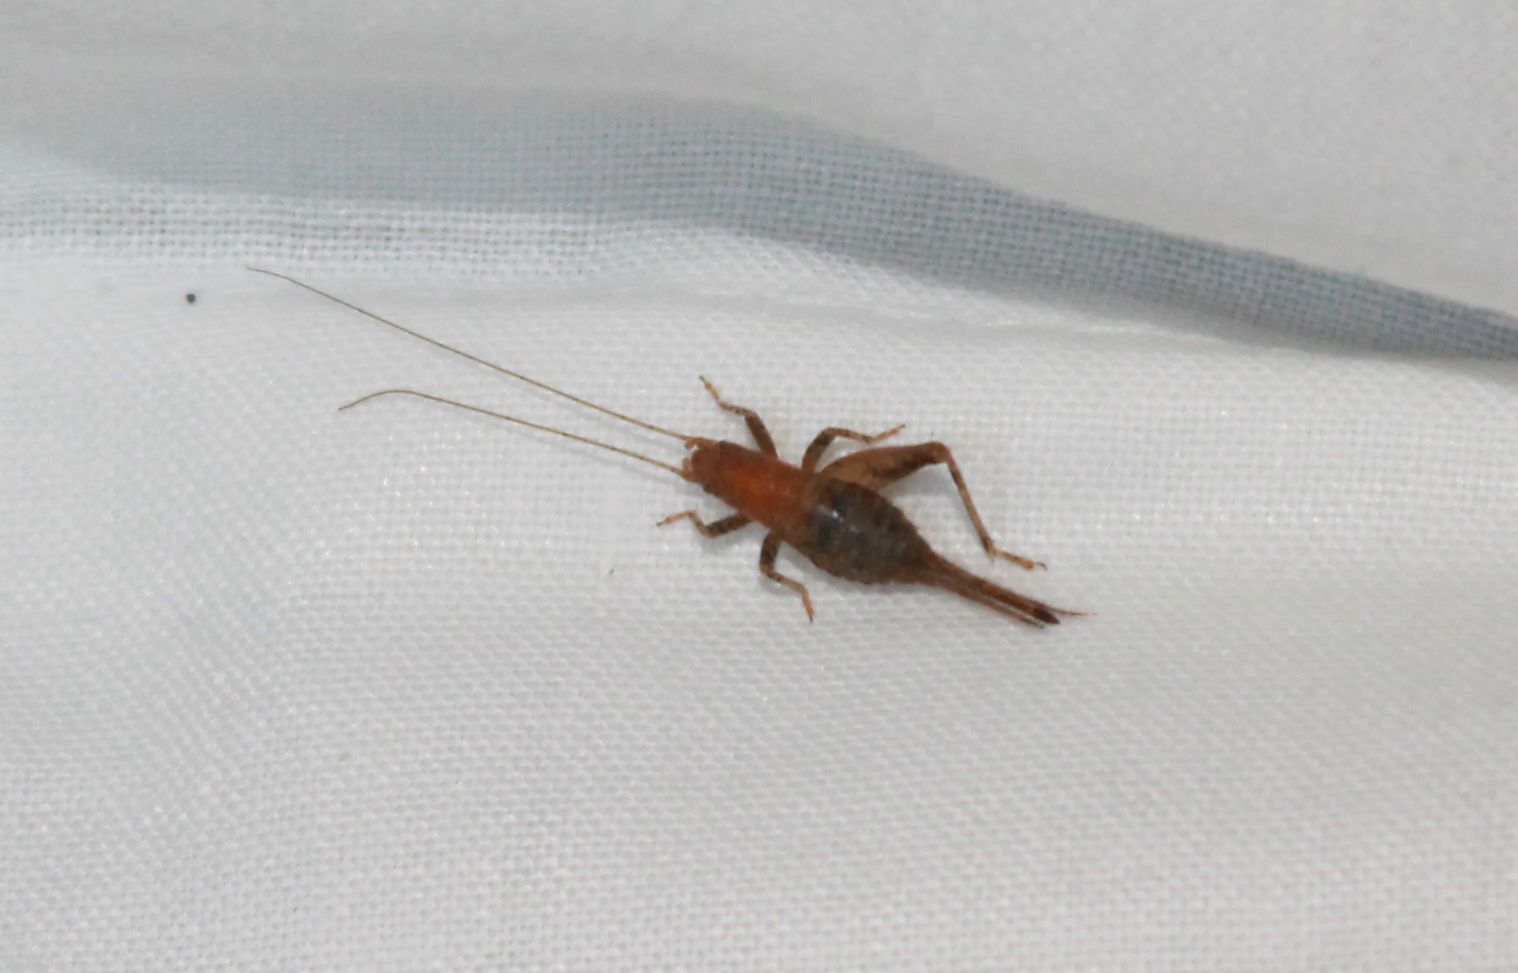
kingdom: Animalia
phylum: Arthropoda
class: Insecta
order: Orthoptera
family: Mogoplistidae
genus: Arachnocephalus
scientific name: Arachnocephalus vestitus
